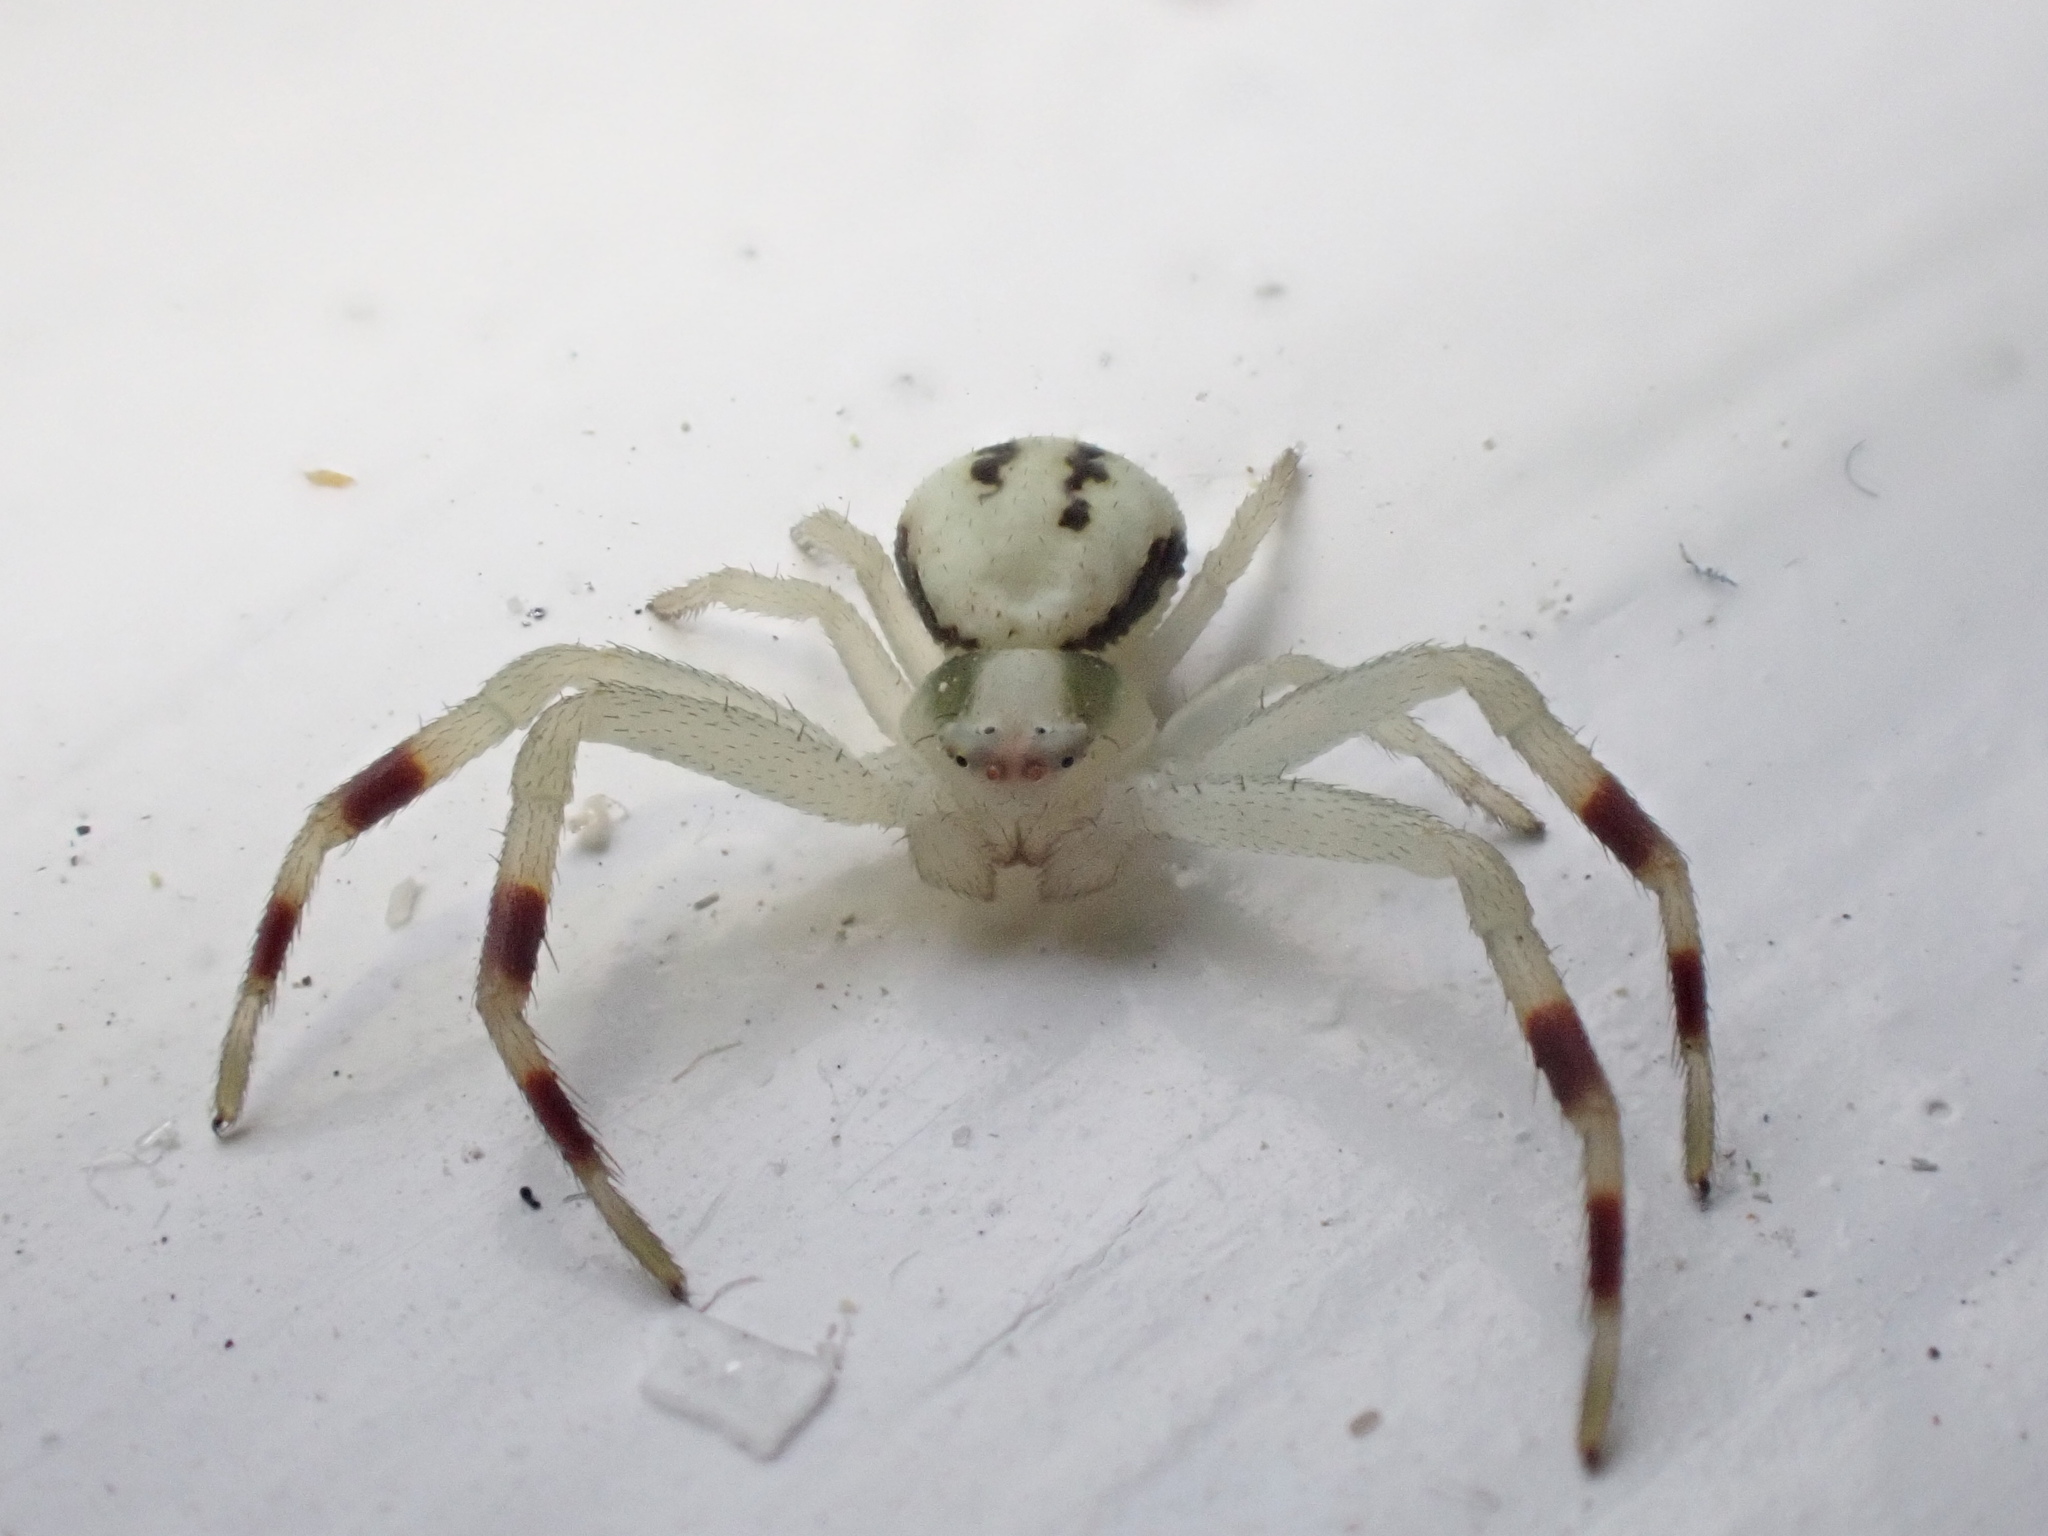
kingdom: Animalia
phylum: Arthropoda
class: Arachnida
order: Araneae
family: Thomisidae
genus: Misumena
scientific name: Misumena vatia
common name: Goldenrod crab spider
